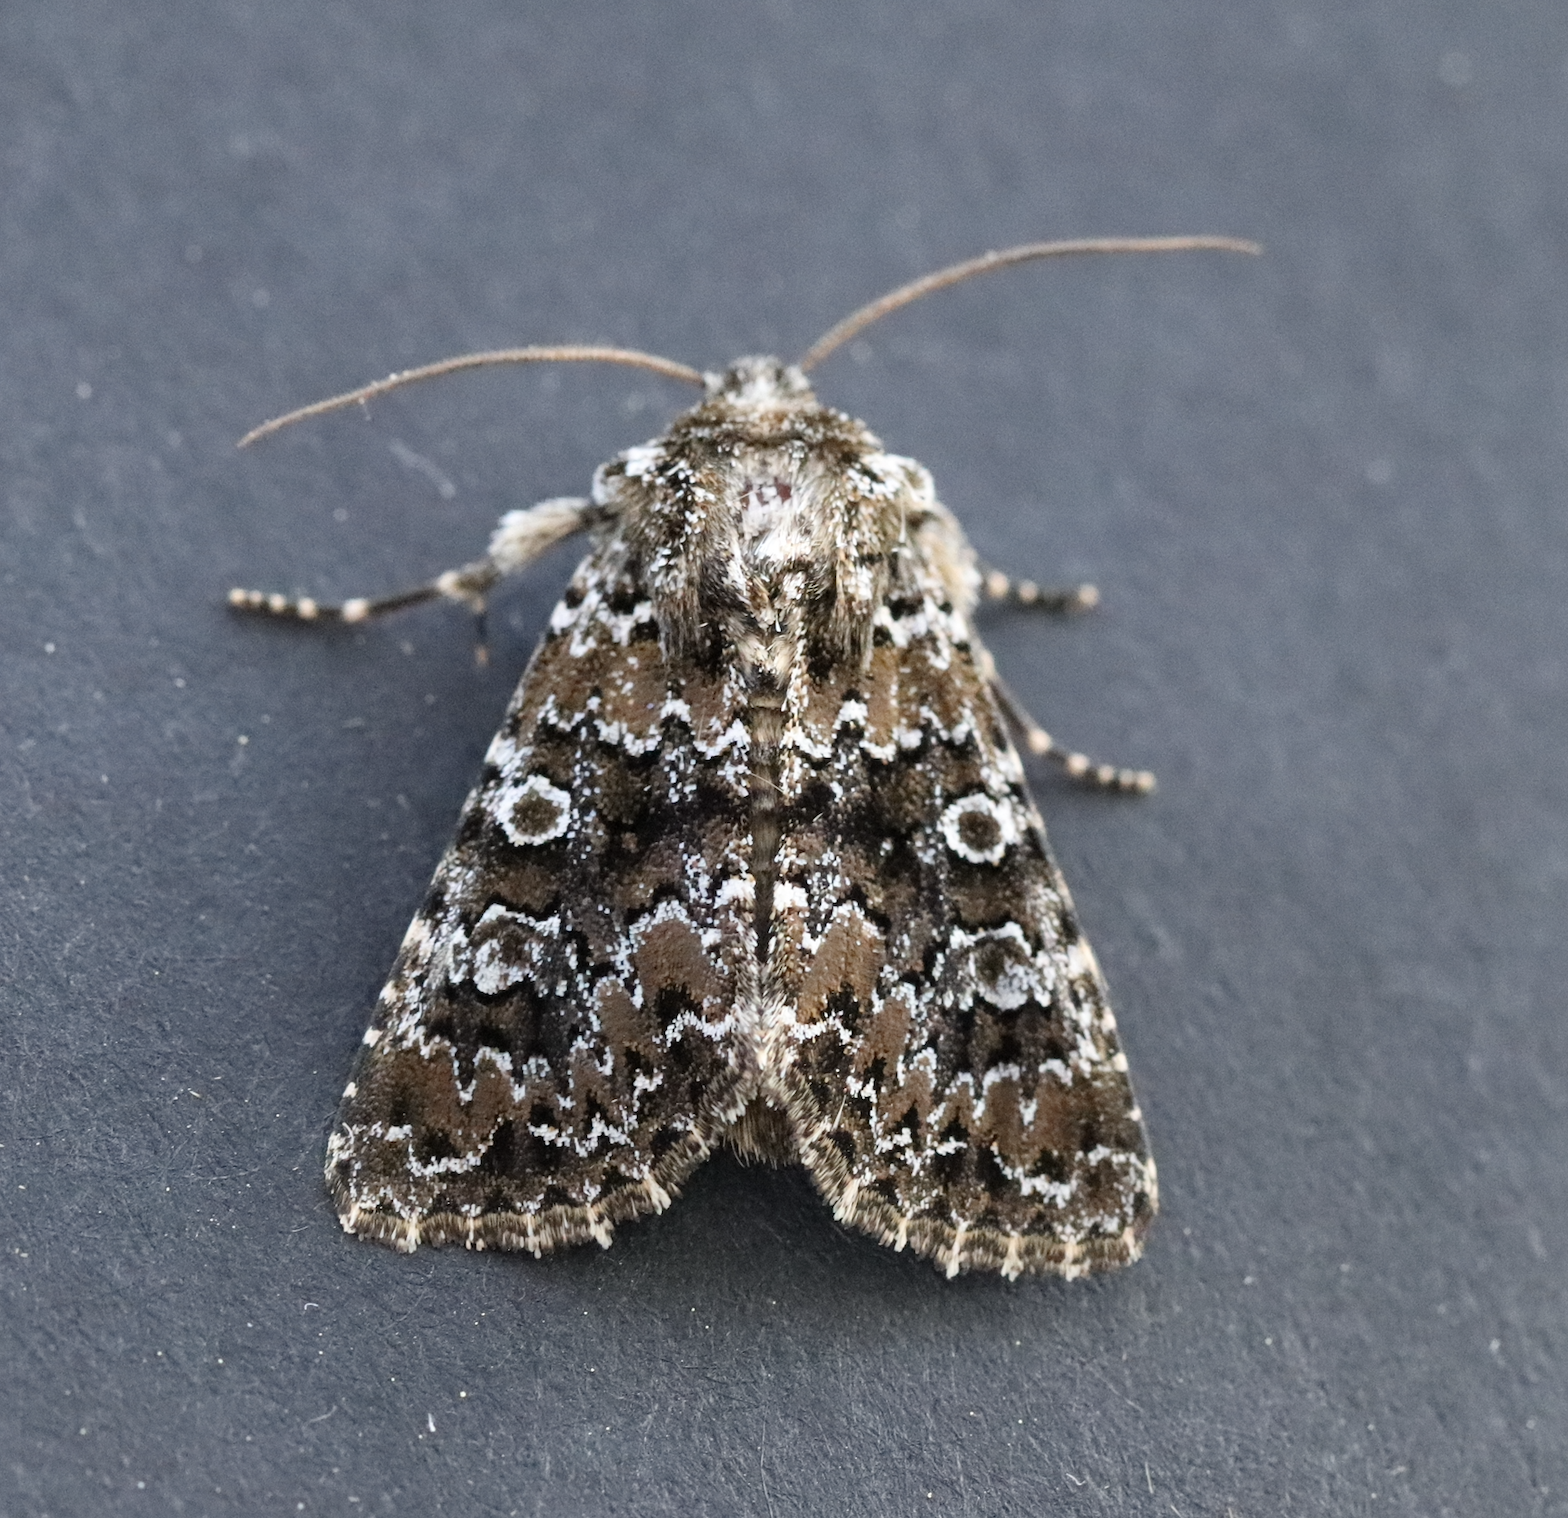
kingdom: Animalia
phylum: Arthropoda
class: Insecta
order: Lepidoptera
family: Noctuidae
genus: Hadena
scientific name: Hadena magnolii
